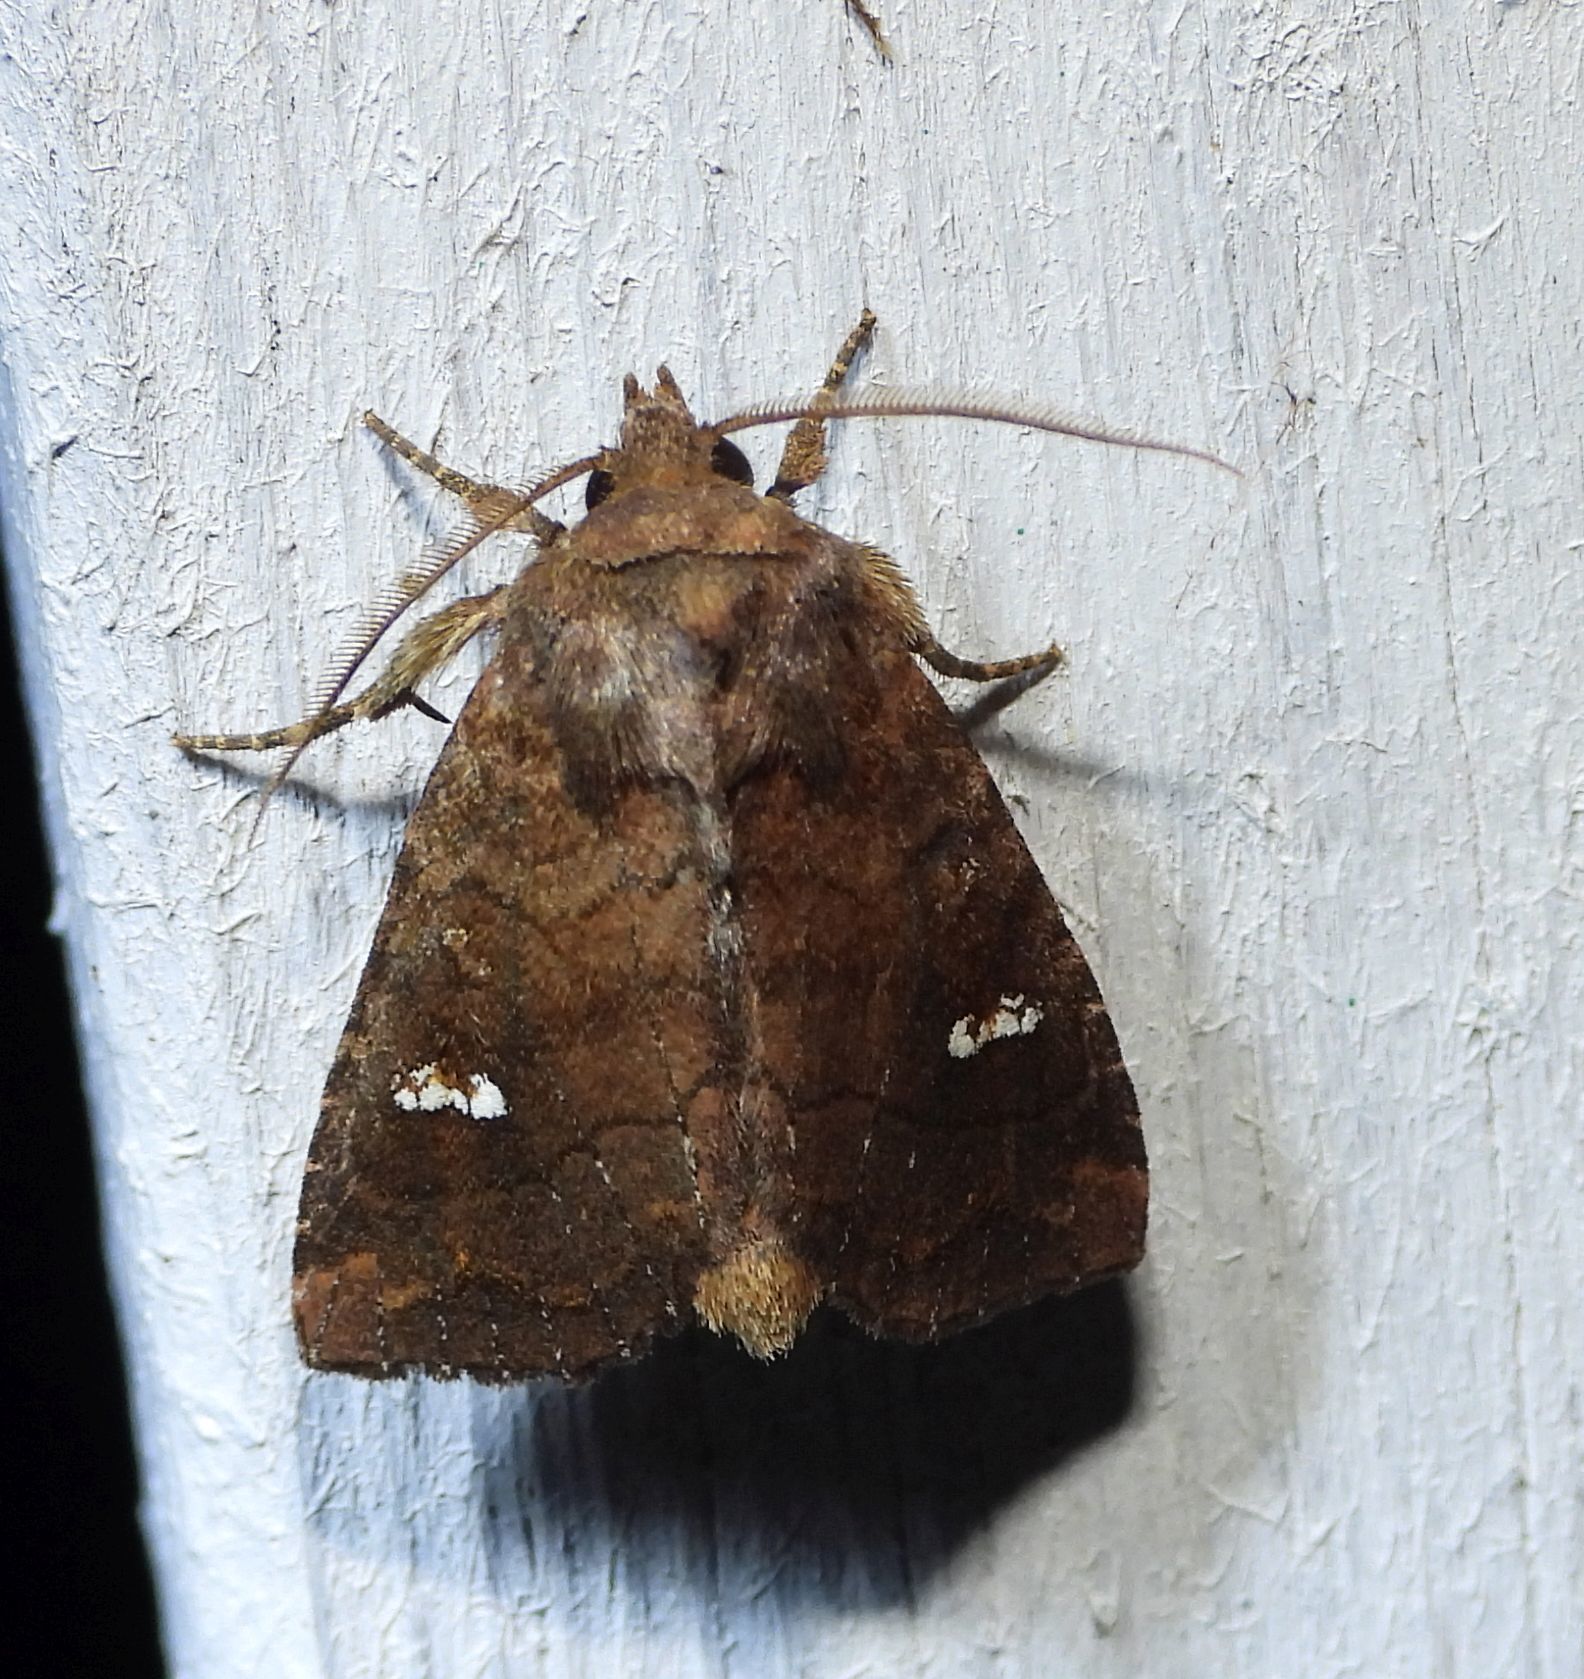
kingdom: Animalia
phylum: Arthropoda
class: Insecta
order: Lepidoptera
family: Noctuidae
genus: Tricholita
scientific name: Tricholita signata
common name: Signate quaker
